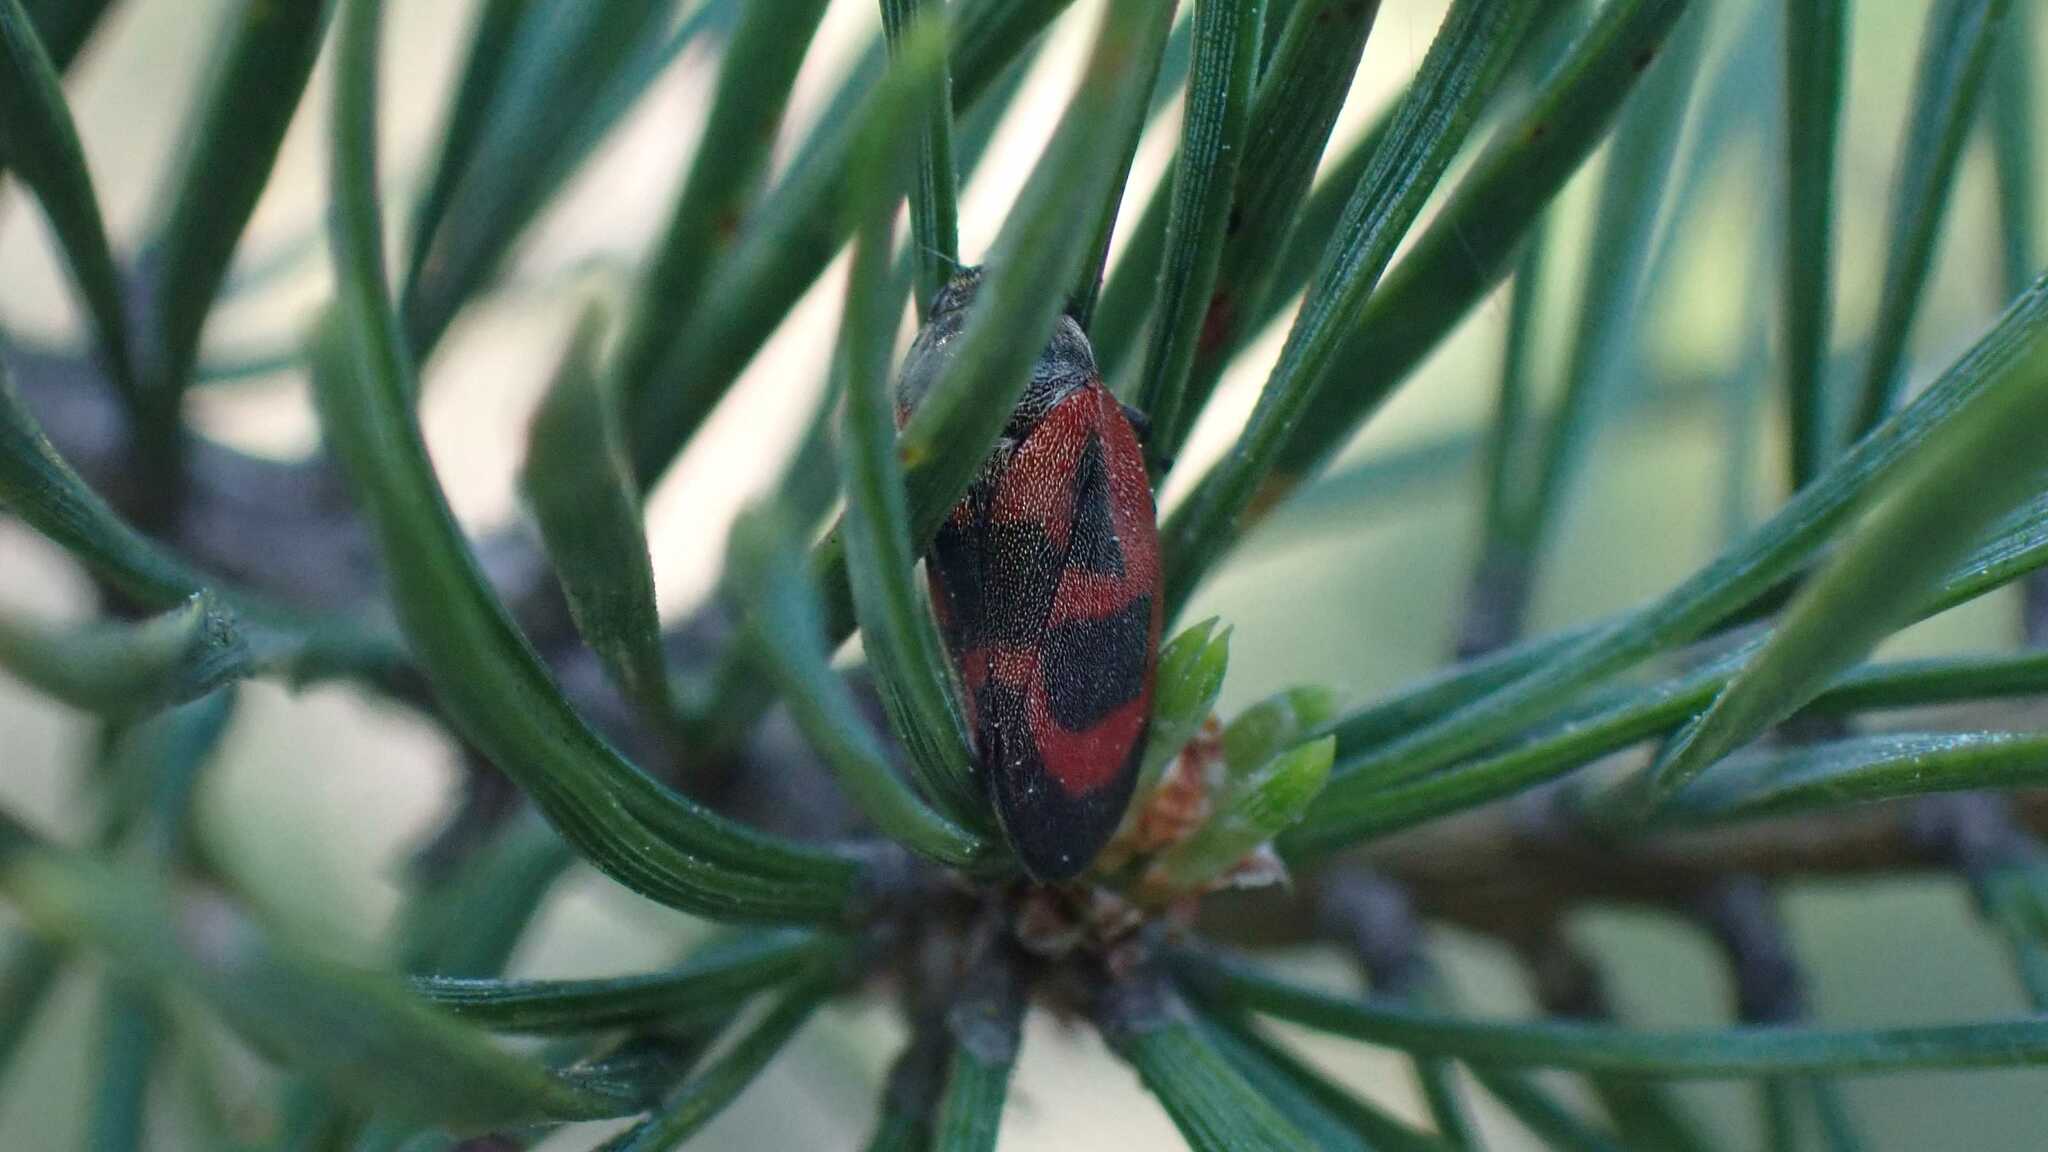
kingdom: Animalia
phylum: Arthropoda
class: Insecta
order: Hemiptera
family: Cercopidae
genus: Haematoloma
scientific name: Haematoloma dorsata
